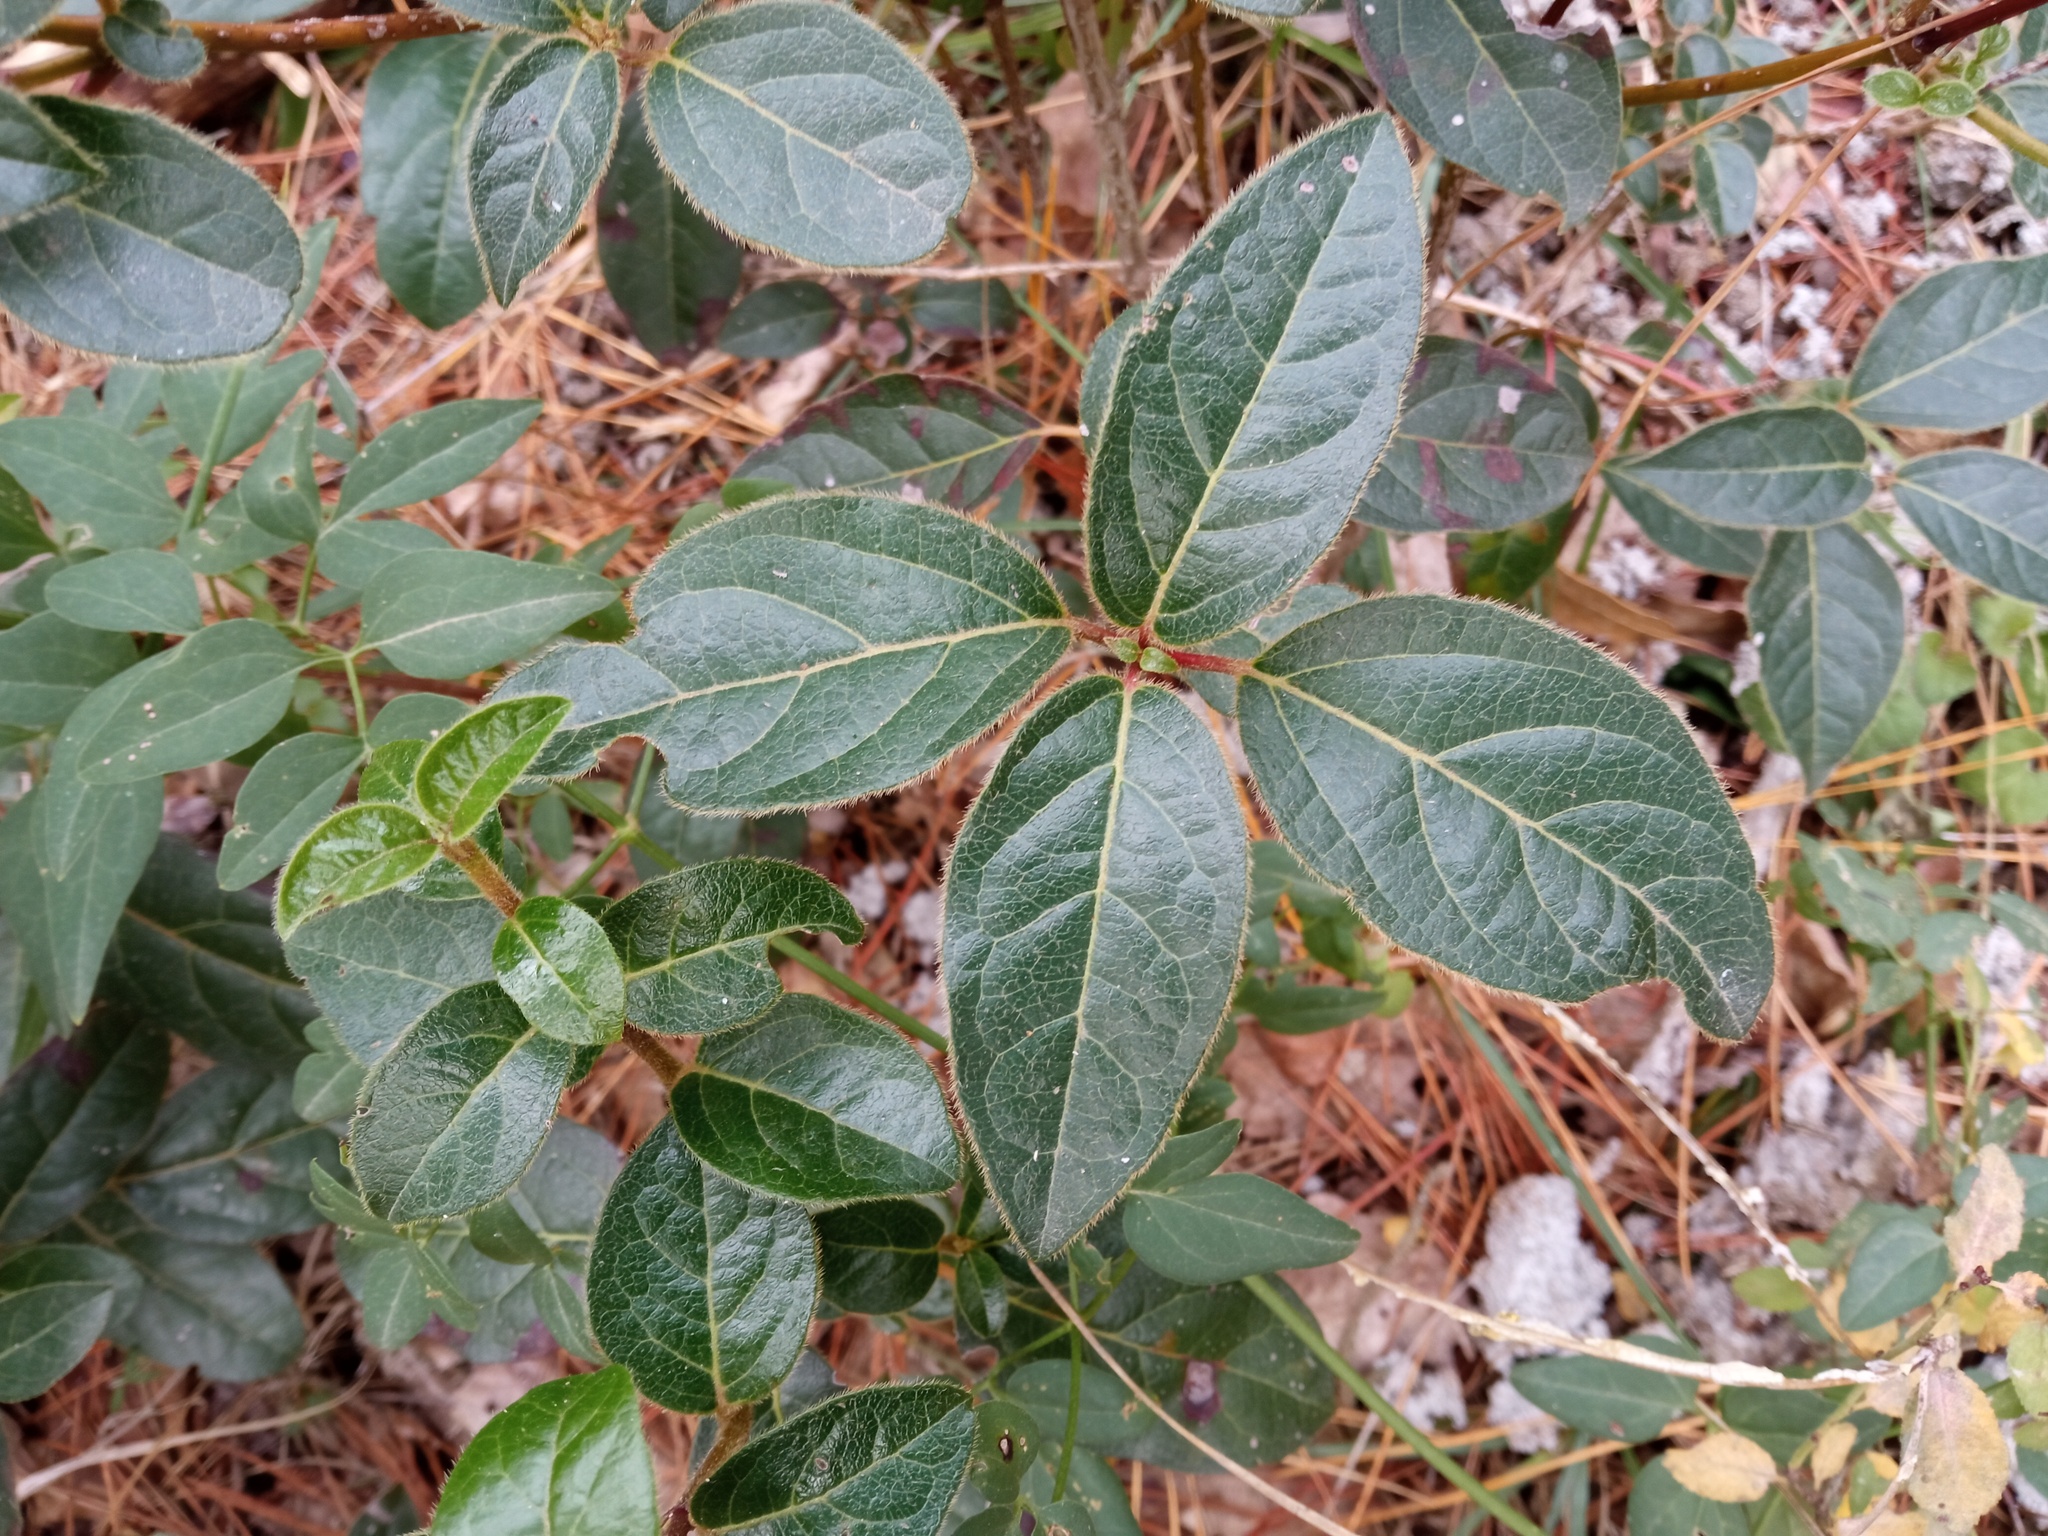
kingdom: Plantae
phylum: Tracheophyta
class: Magnoliopsida
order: Dipsacales
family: Viburnaceae
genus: Viburnum
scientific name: Viburnum tinus
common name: Laurustinus
